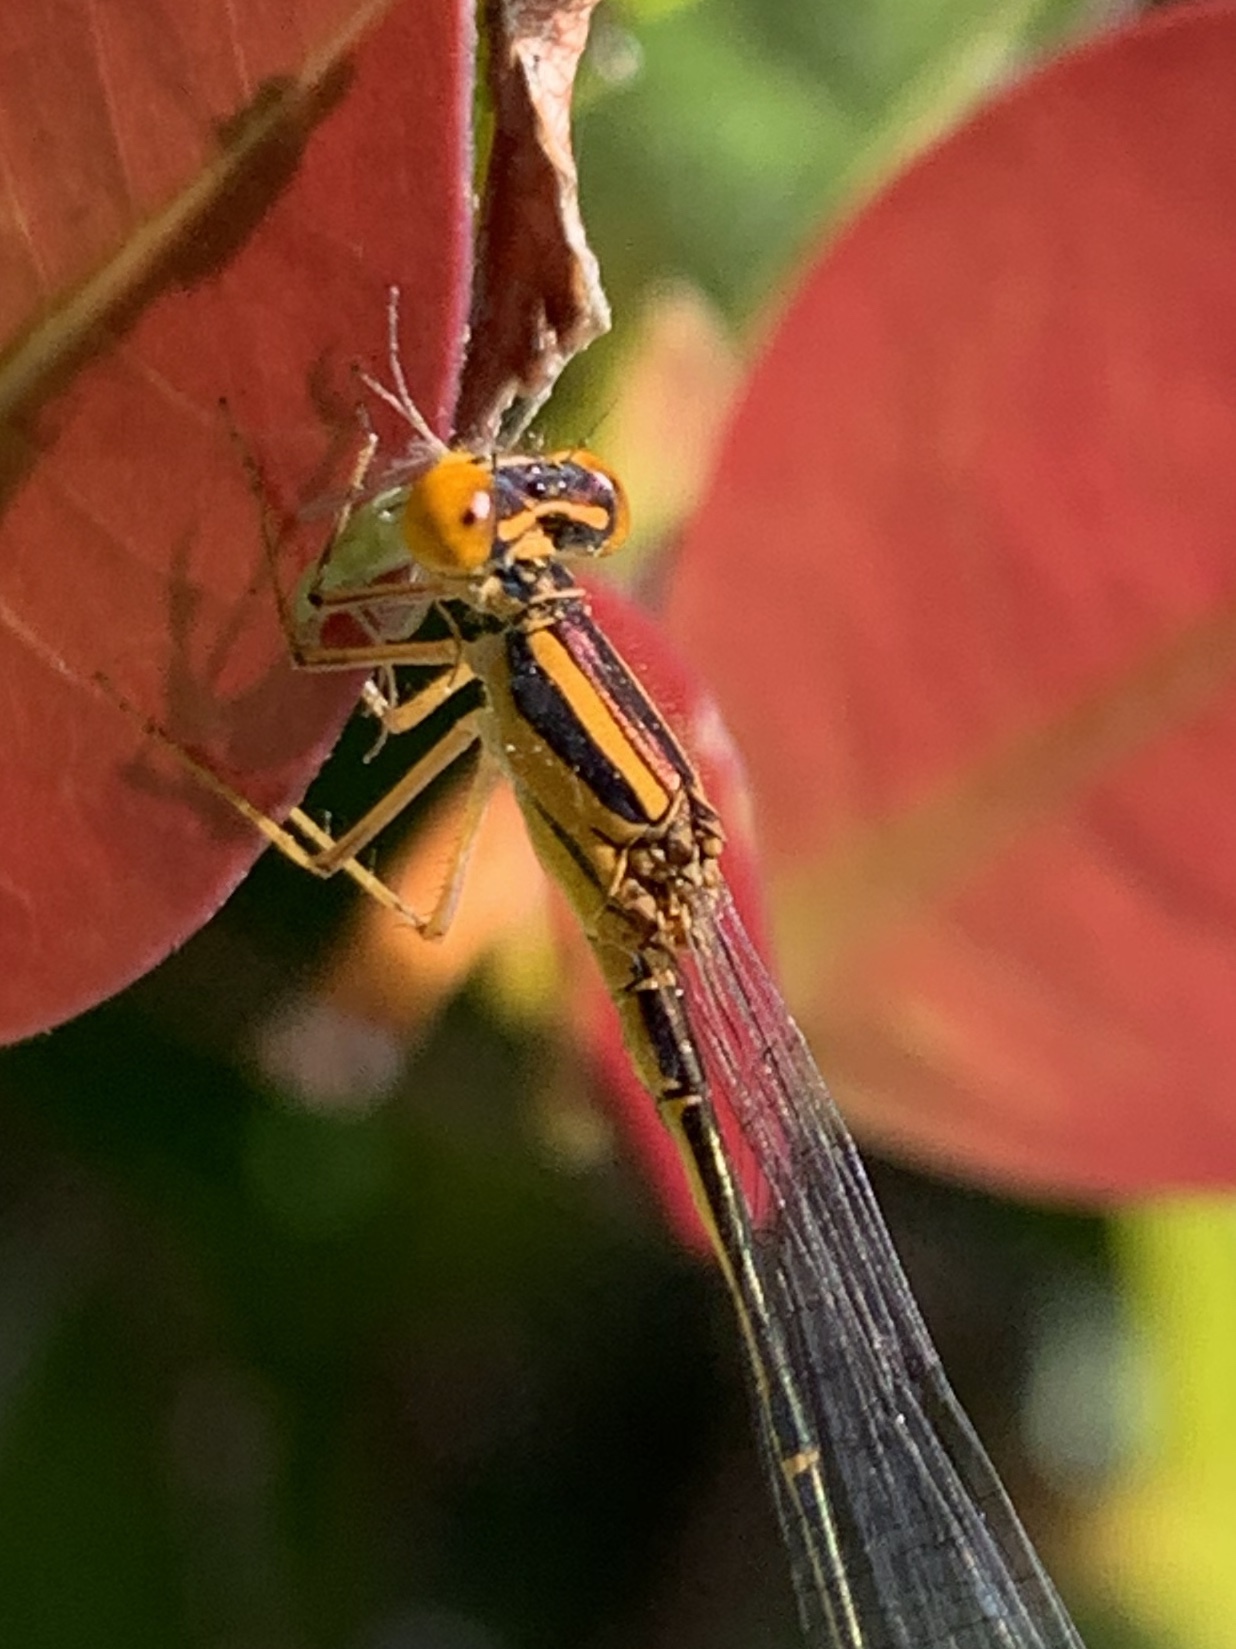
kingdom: Animalia
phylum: Arthropoda
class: Insecta
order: Odonata
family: Coenagrionidae
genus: Enallagma
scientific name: Enallagma pollutum
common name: Florida bluet
